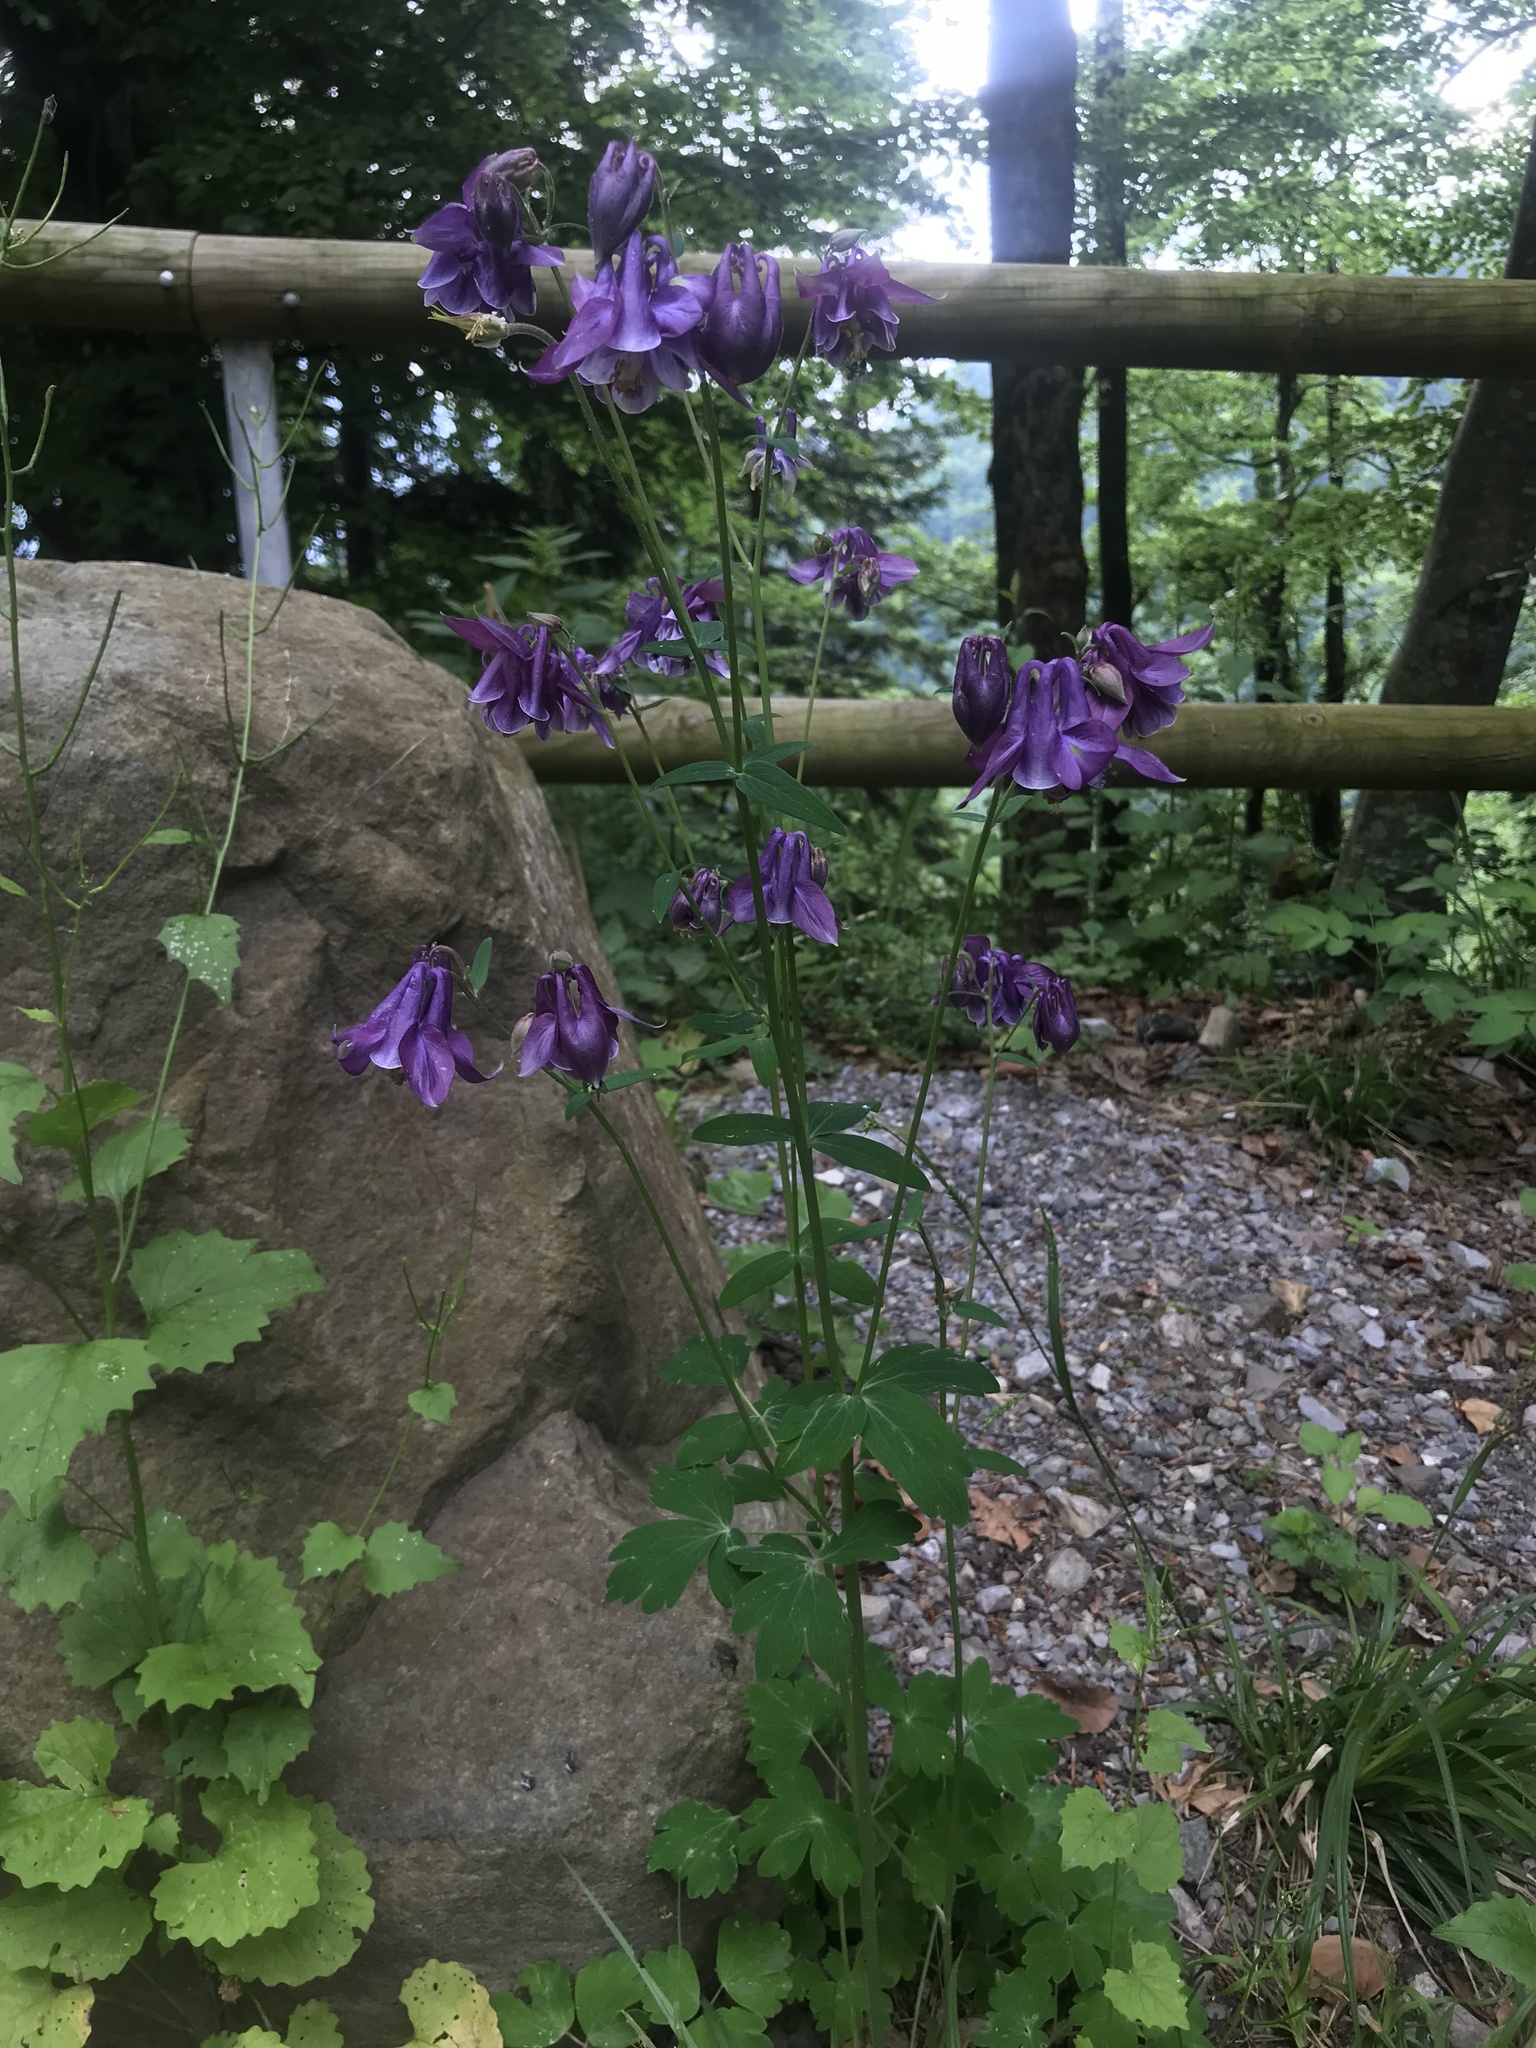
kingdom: Plantae
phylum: Tracheophyta
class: Magnoliopsida
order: Ranunculales
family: Ranunculaceae
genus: Aquilegia
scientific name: Aquilegia vulgaris
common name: Columbine
